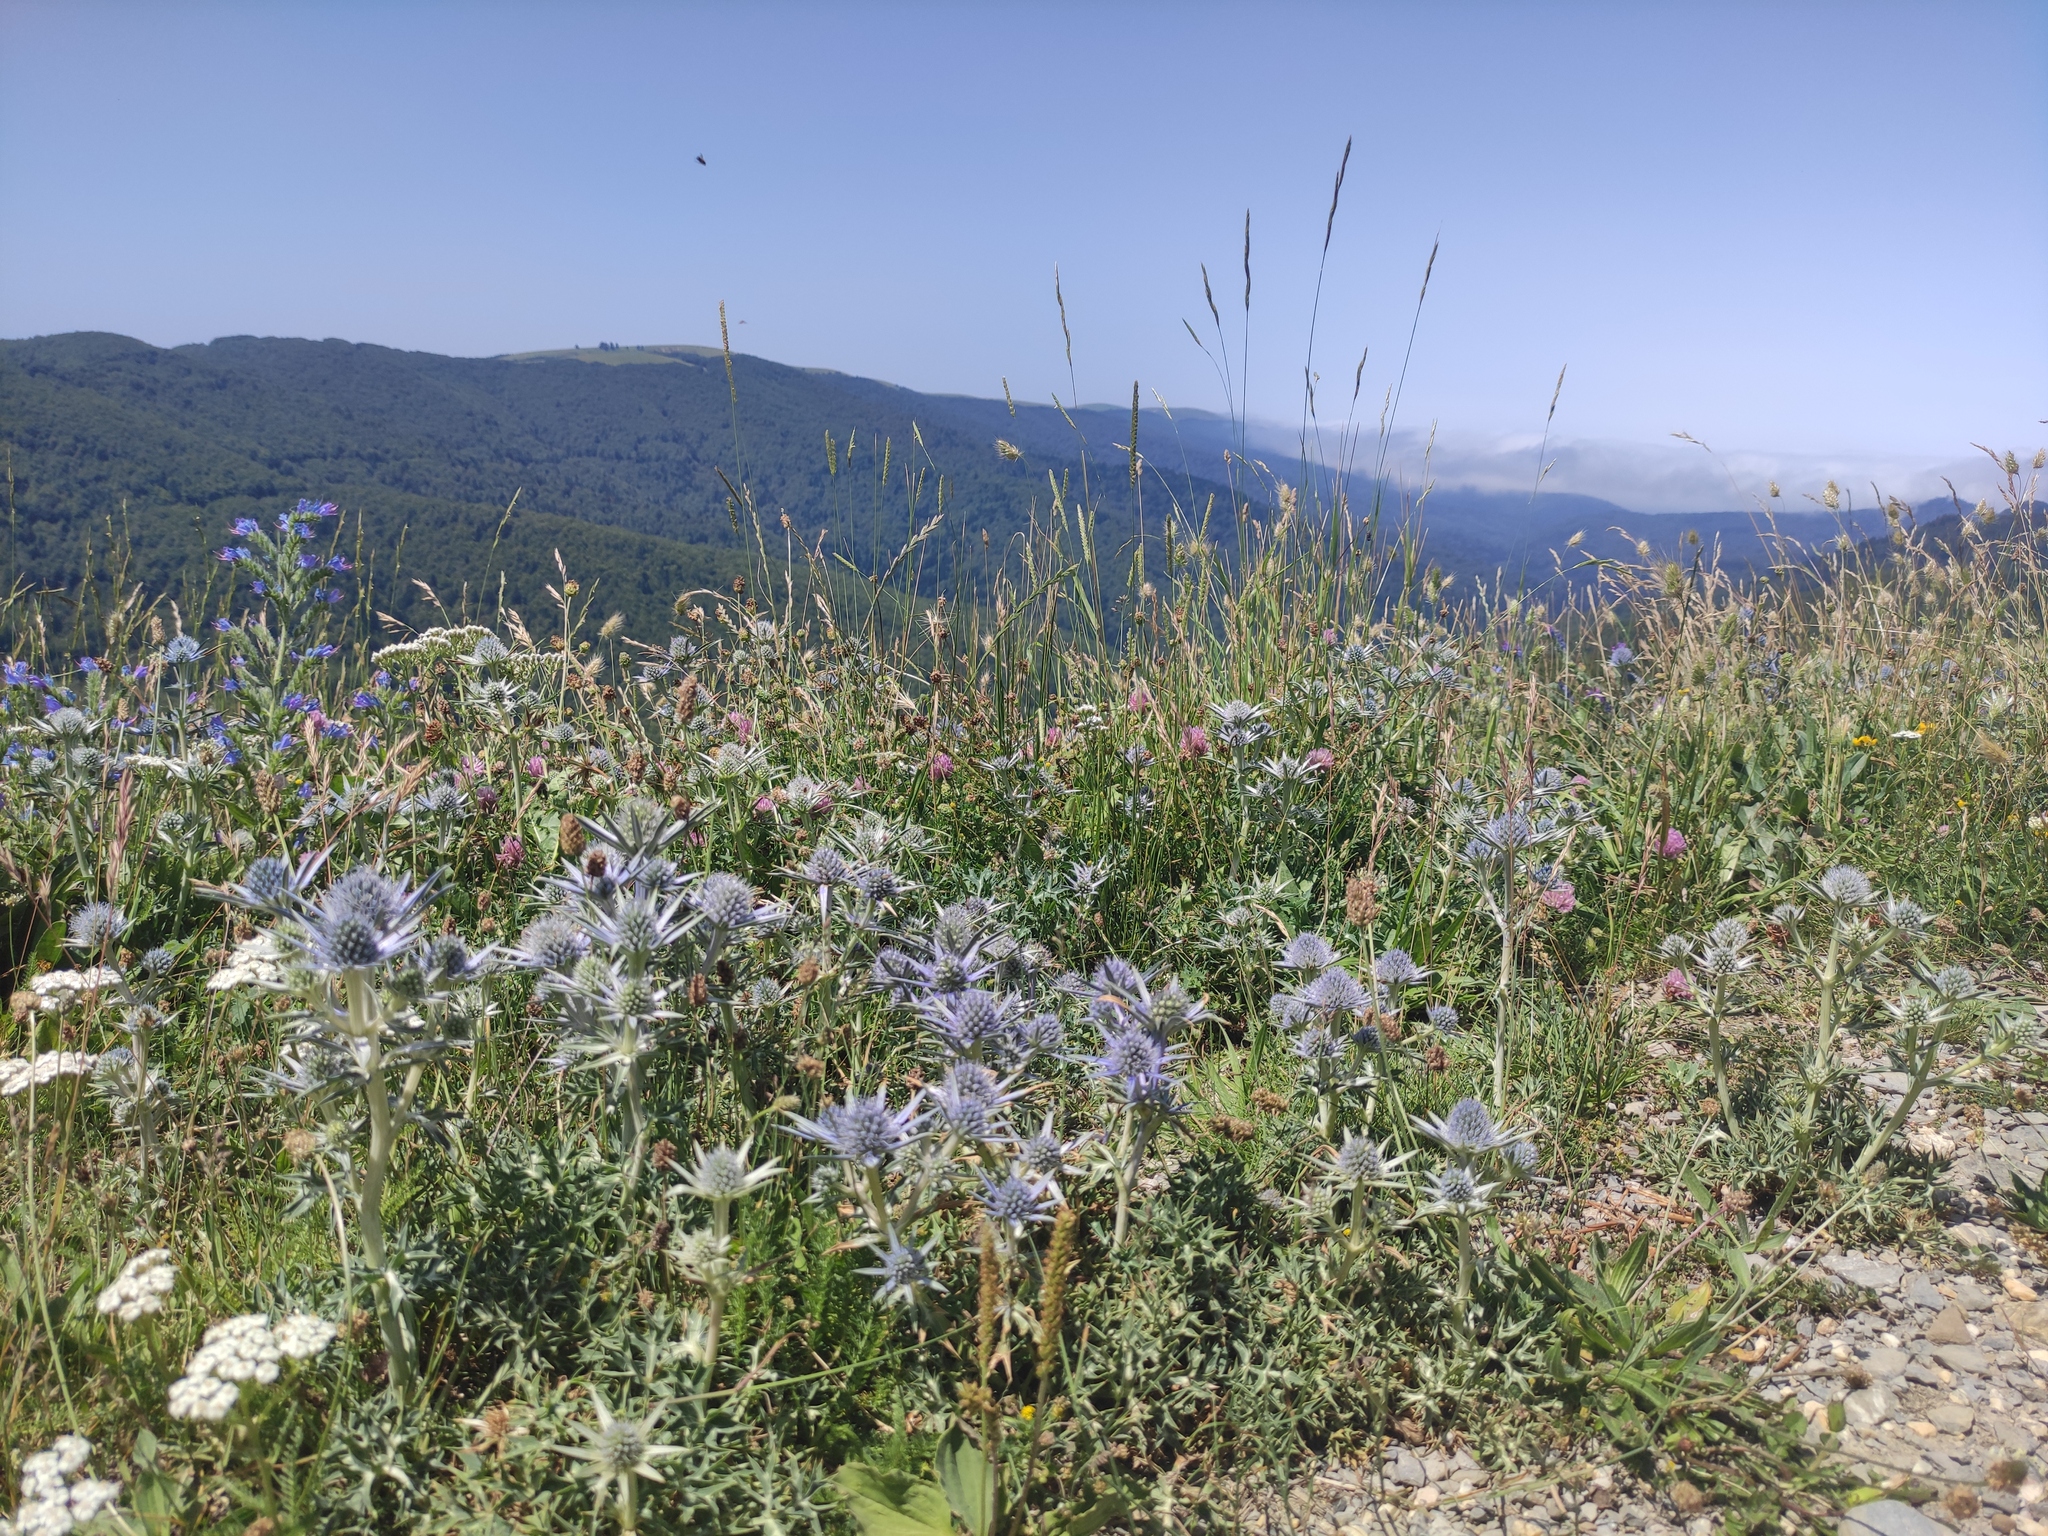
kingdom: Plantae
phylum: Tracheophyta
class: Magnoliopsida
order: Apiales
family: Apiaceae
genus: Eryngium
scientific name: Eryngium bourgatii
